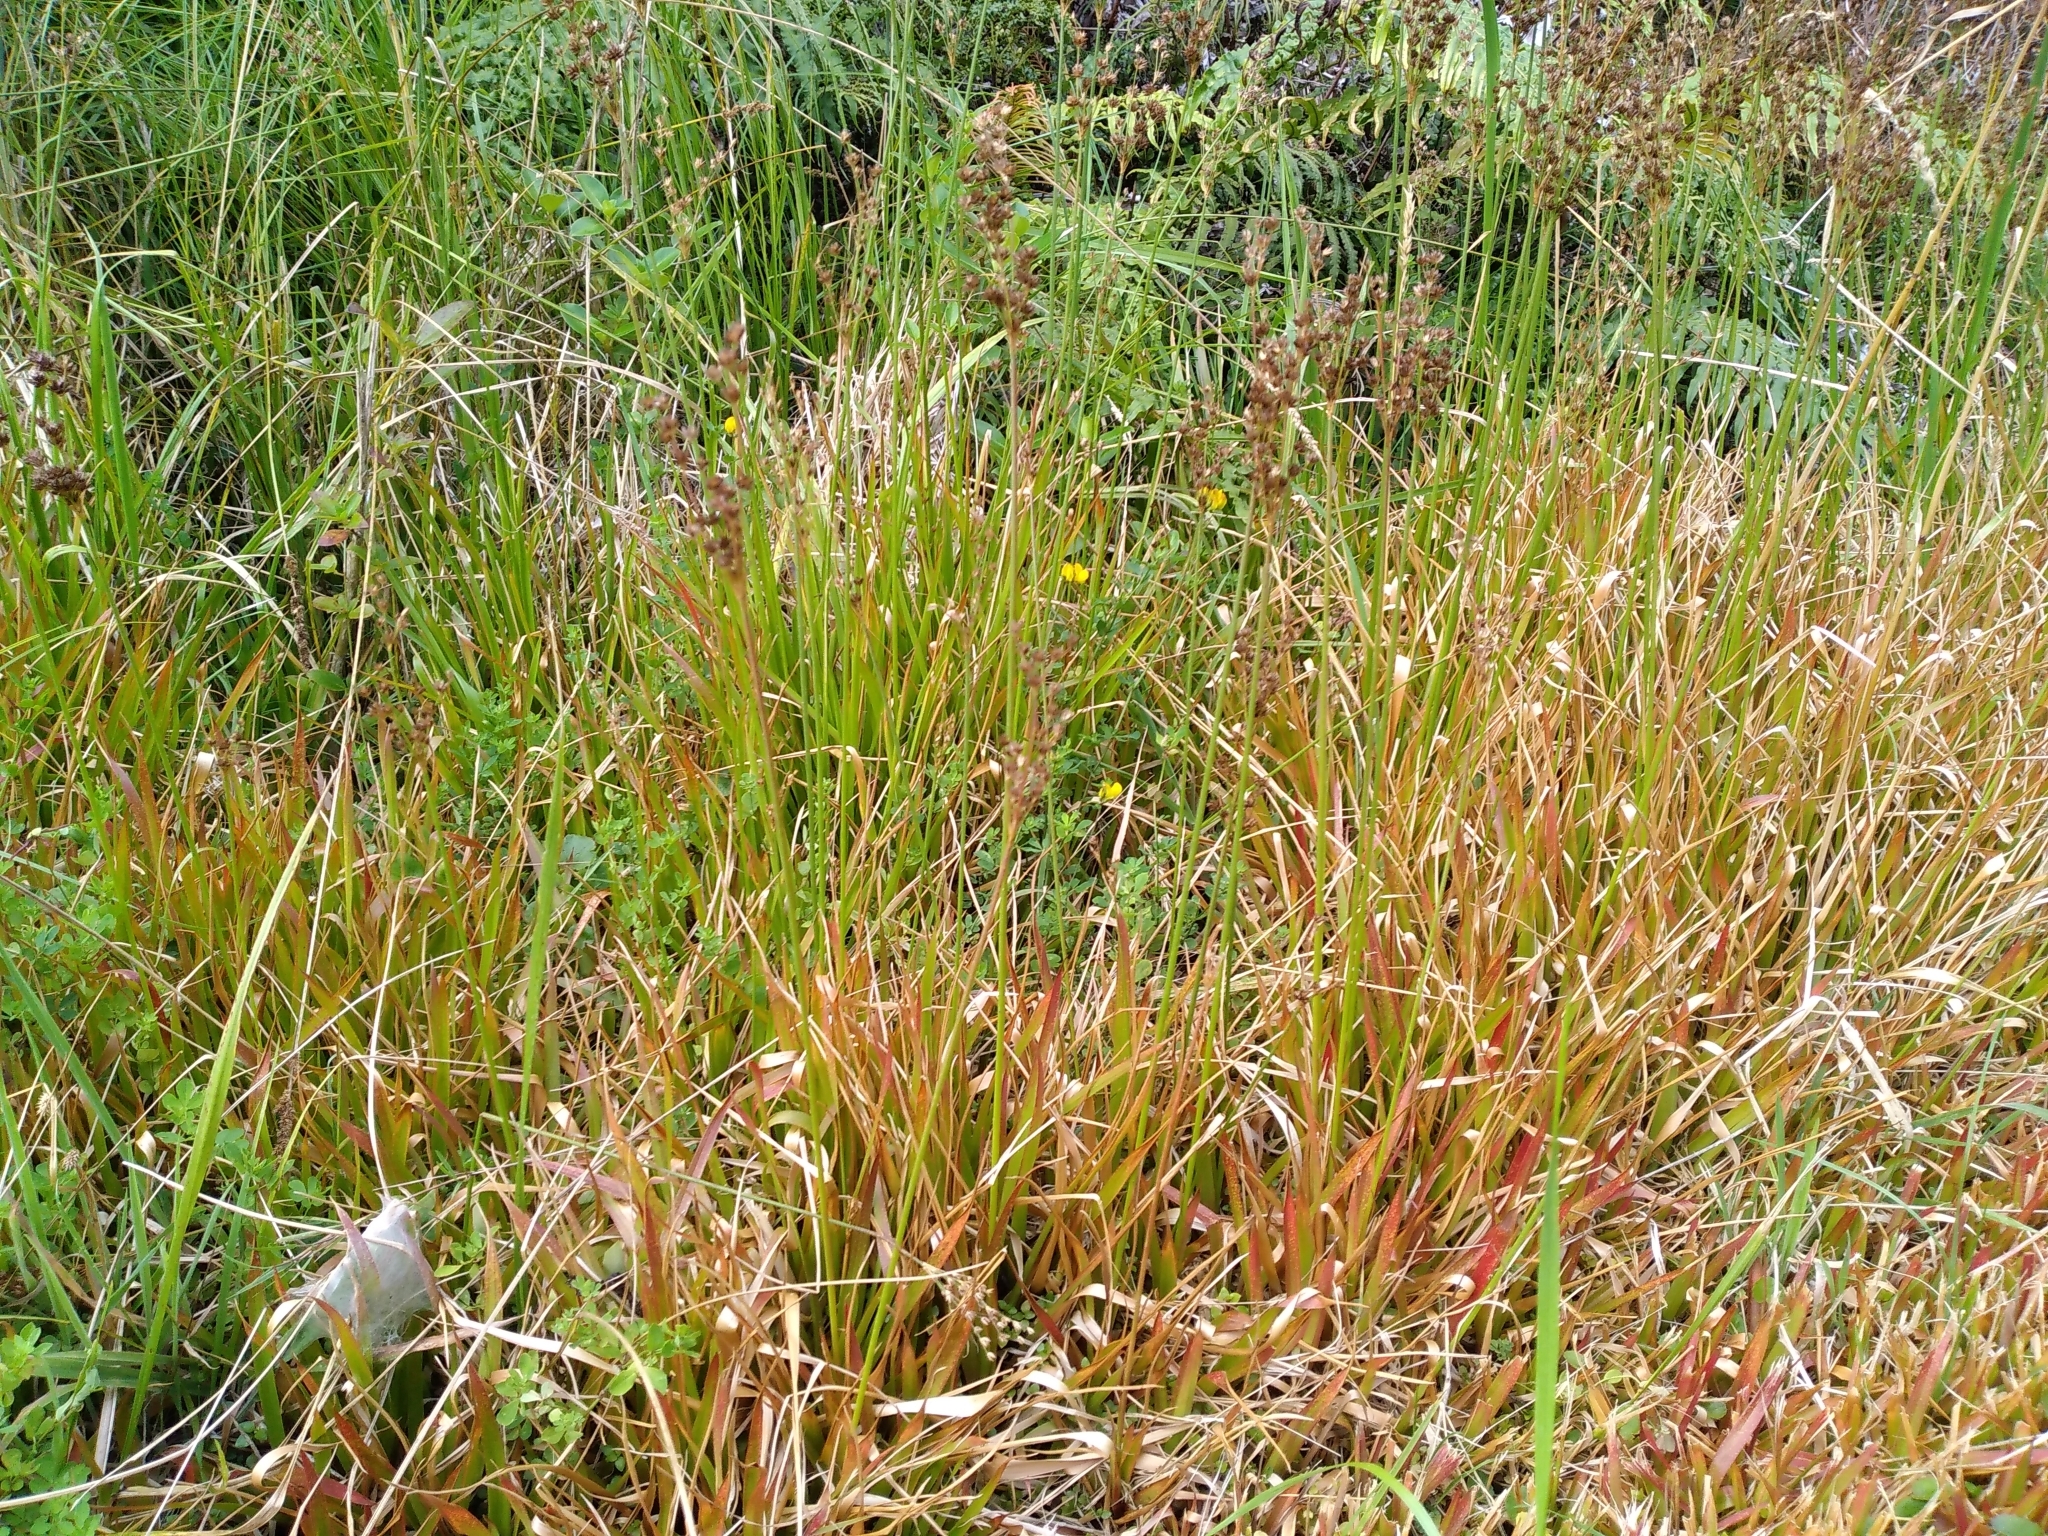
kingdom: Plantae
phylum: Tracheophyta
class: Liliopsida
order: Poales
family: Juncaceae
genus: Juncus
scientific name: Juncus lomatophyllus
